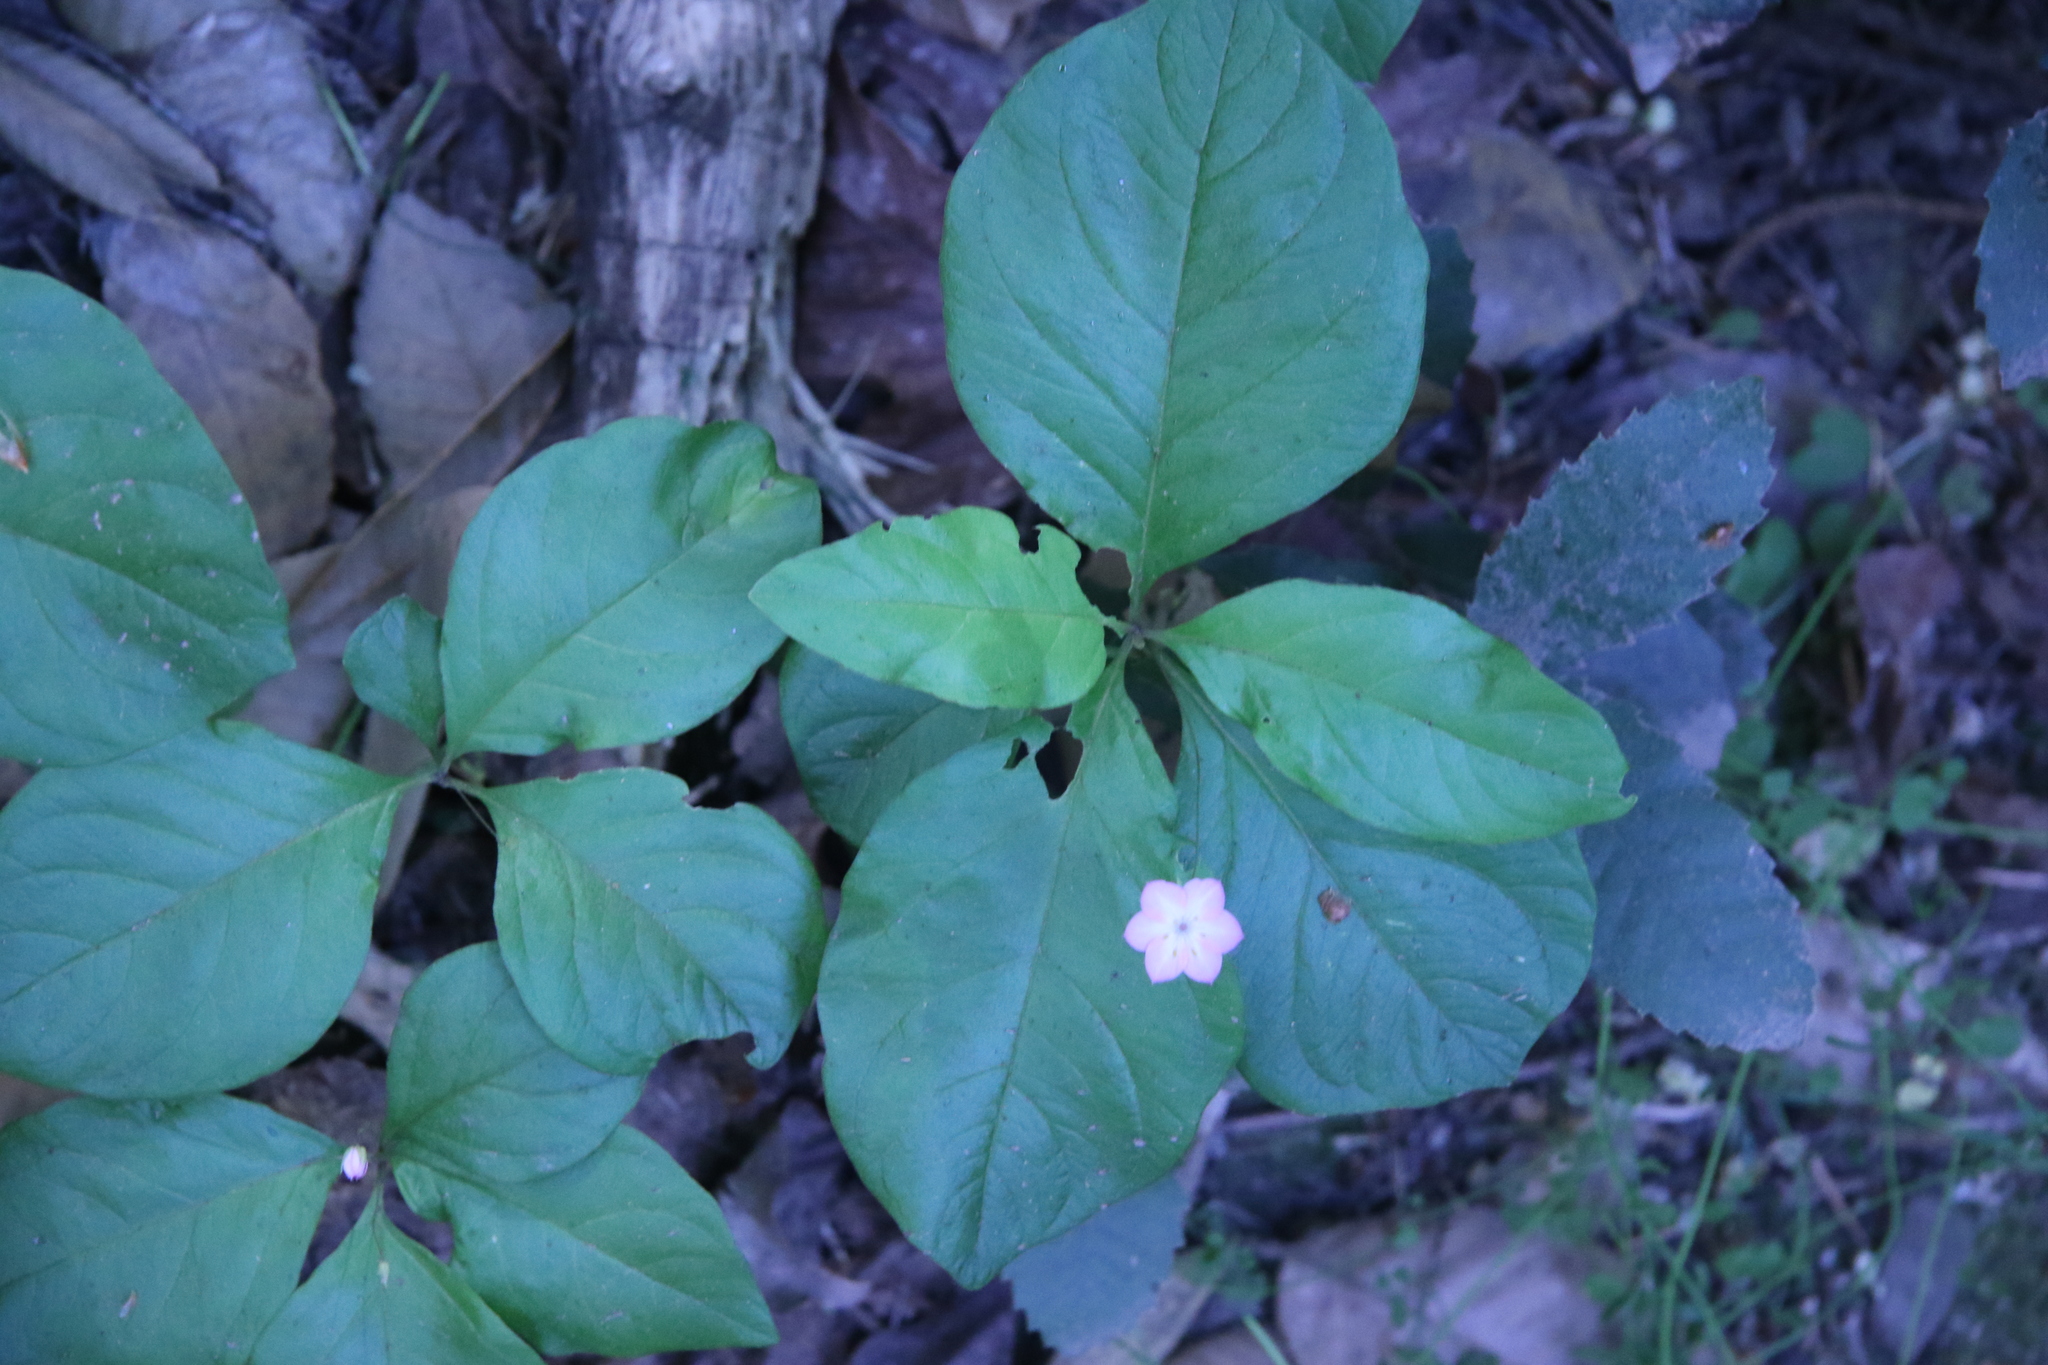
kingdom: Plantae
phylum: Tracheophyta
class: Magnoliopsida
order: Ericales
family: Primulaceae
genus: Lysimachia
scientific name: Lysimachia latifolia
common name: Pacific starflower
